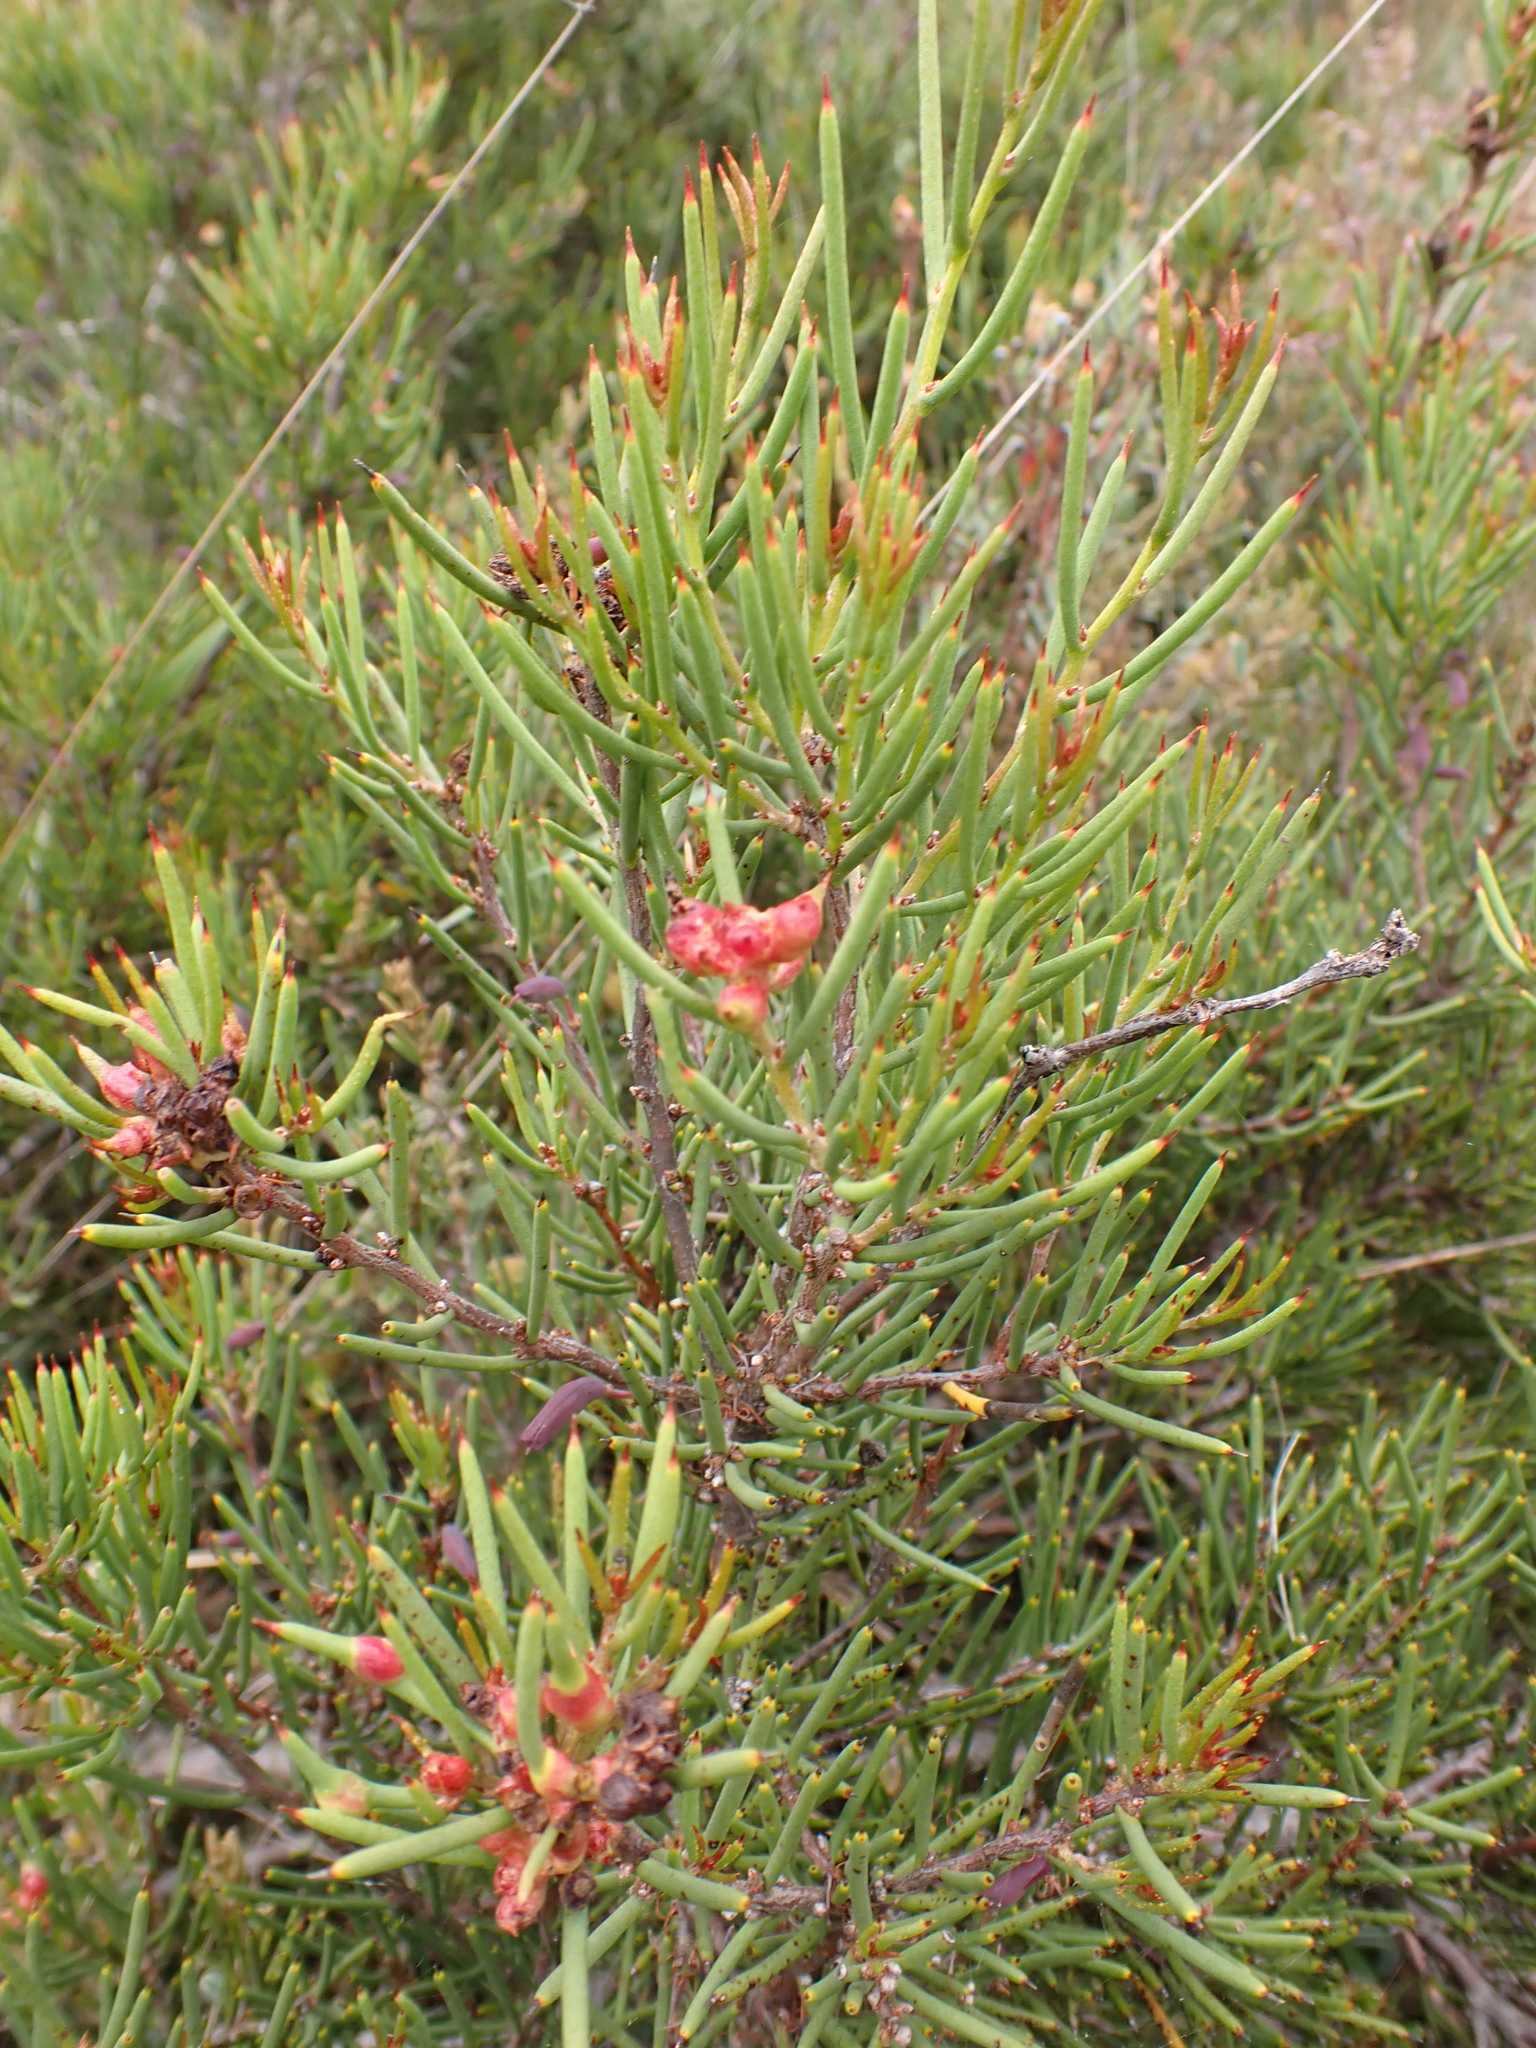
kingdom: Plantae
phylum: Tracheophyta
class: Magnoliopsida
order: Proteales
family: Proteaceae
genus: Hakea
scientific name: Hakea microcarpa
